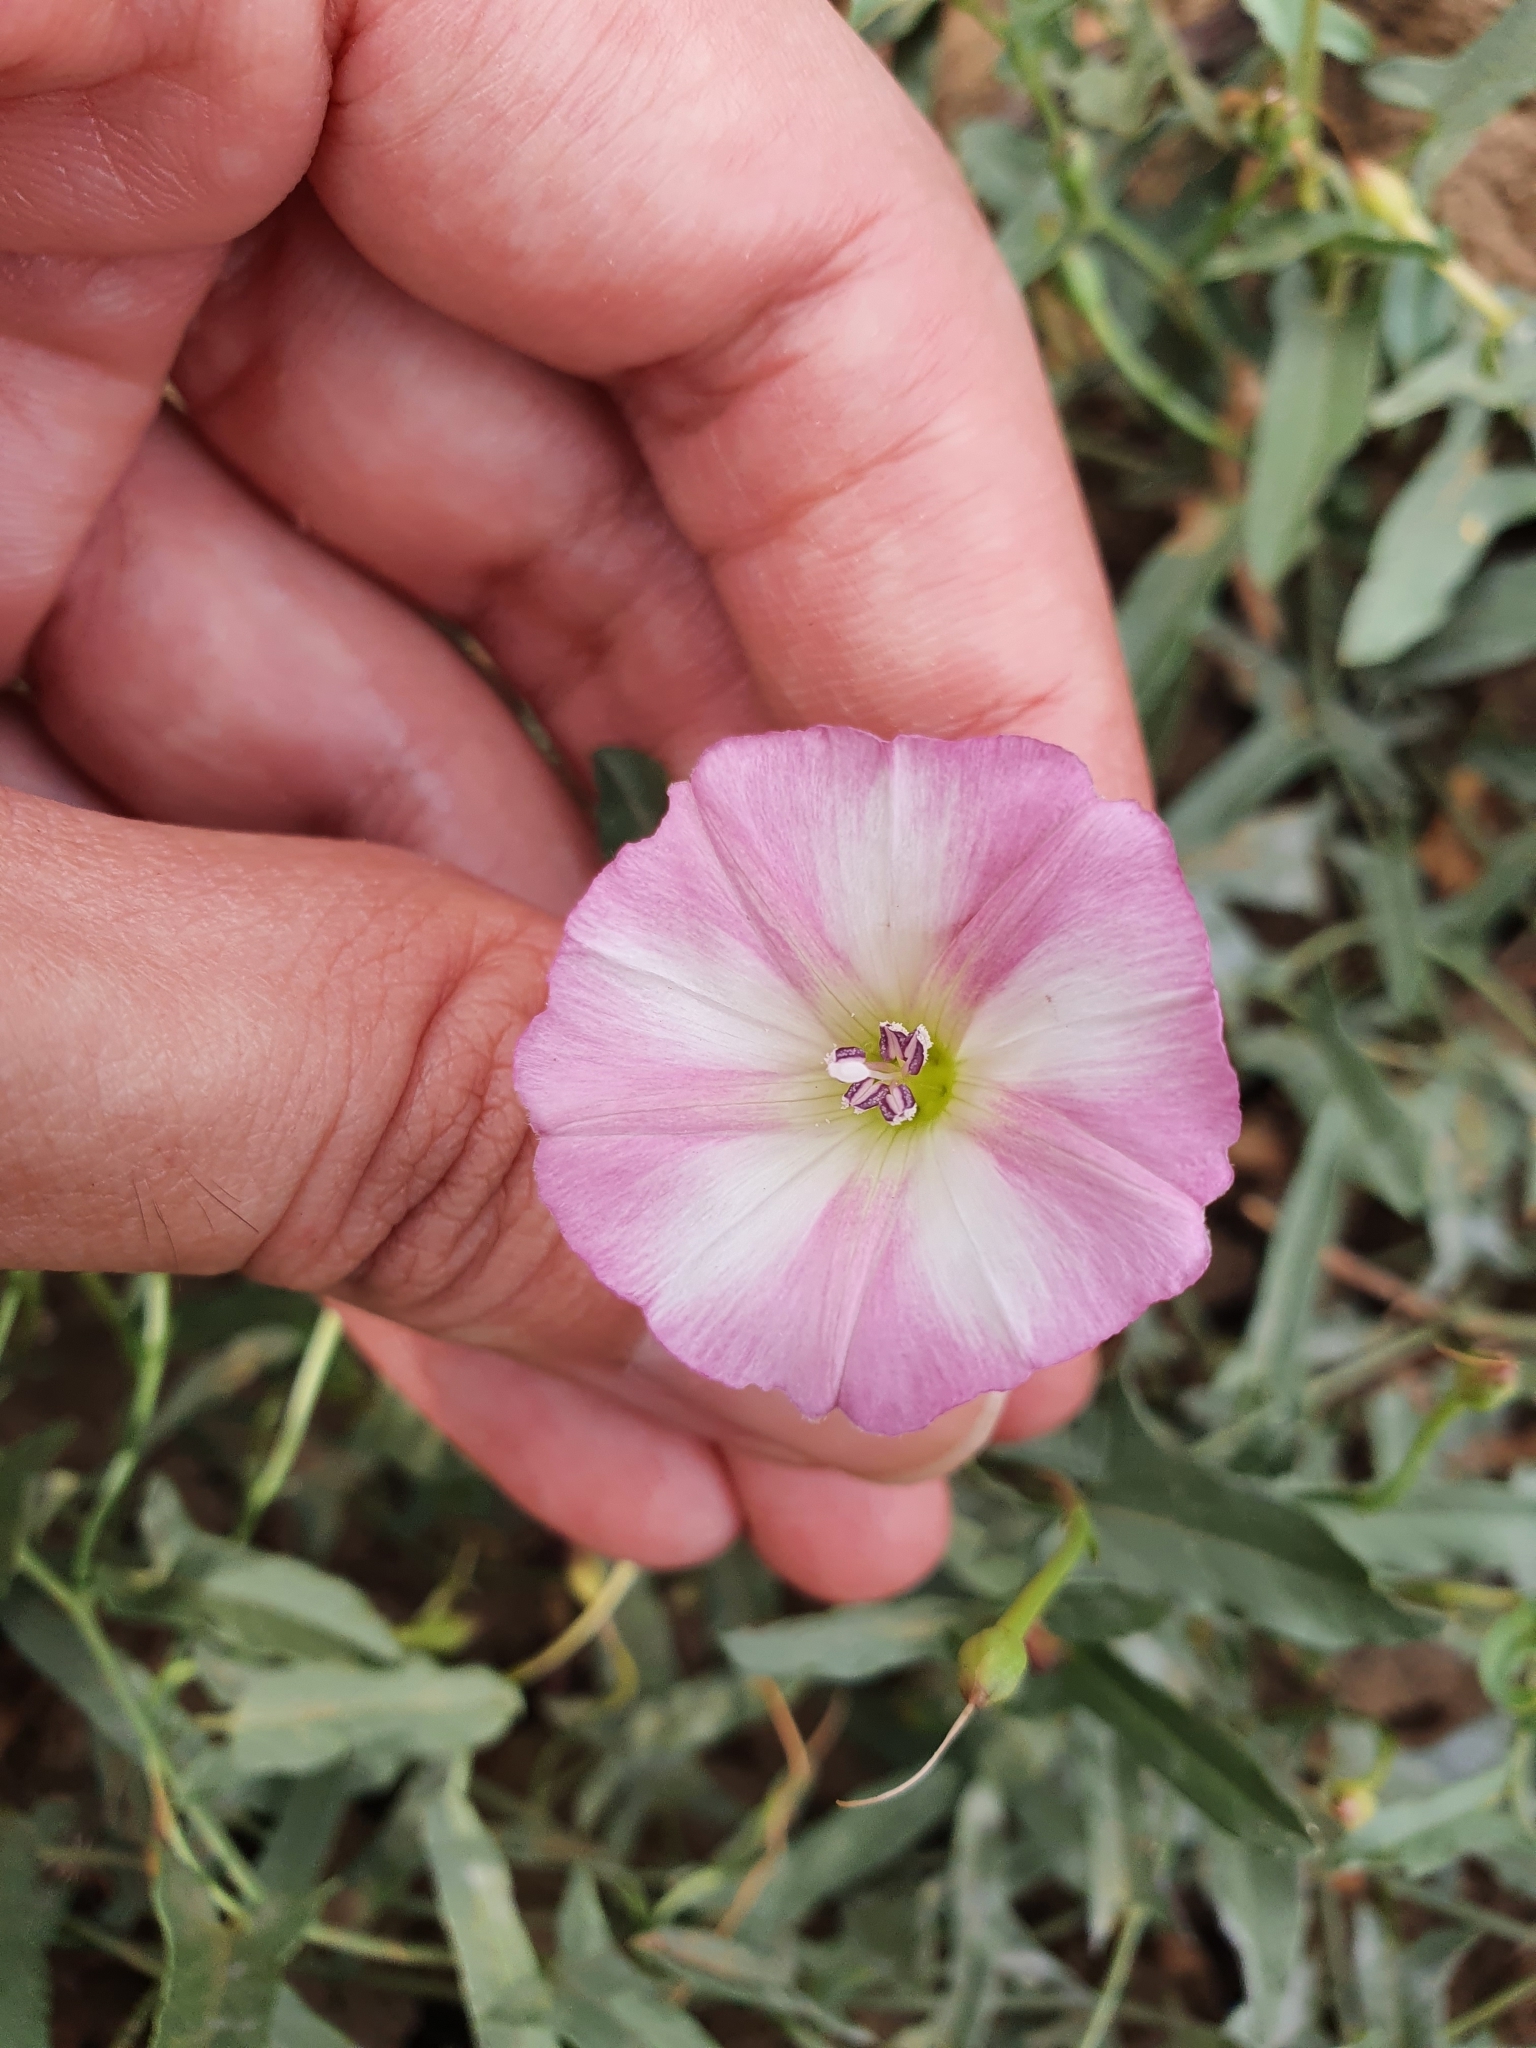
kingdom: Plantae
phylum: Tracheophyta
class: Magnoliopsida
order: Solanales
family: Convolvulaceae
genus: Convolvulus
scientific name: Convolvulus arvensis
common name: Field bindweed
